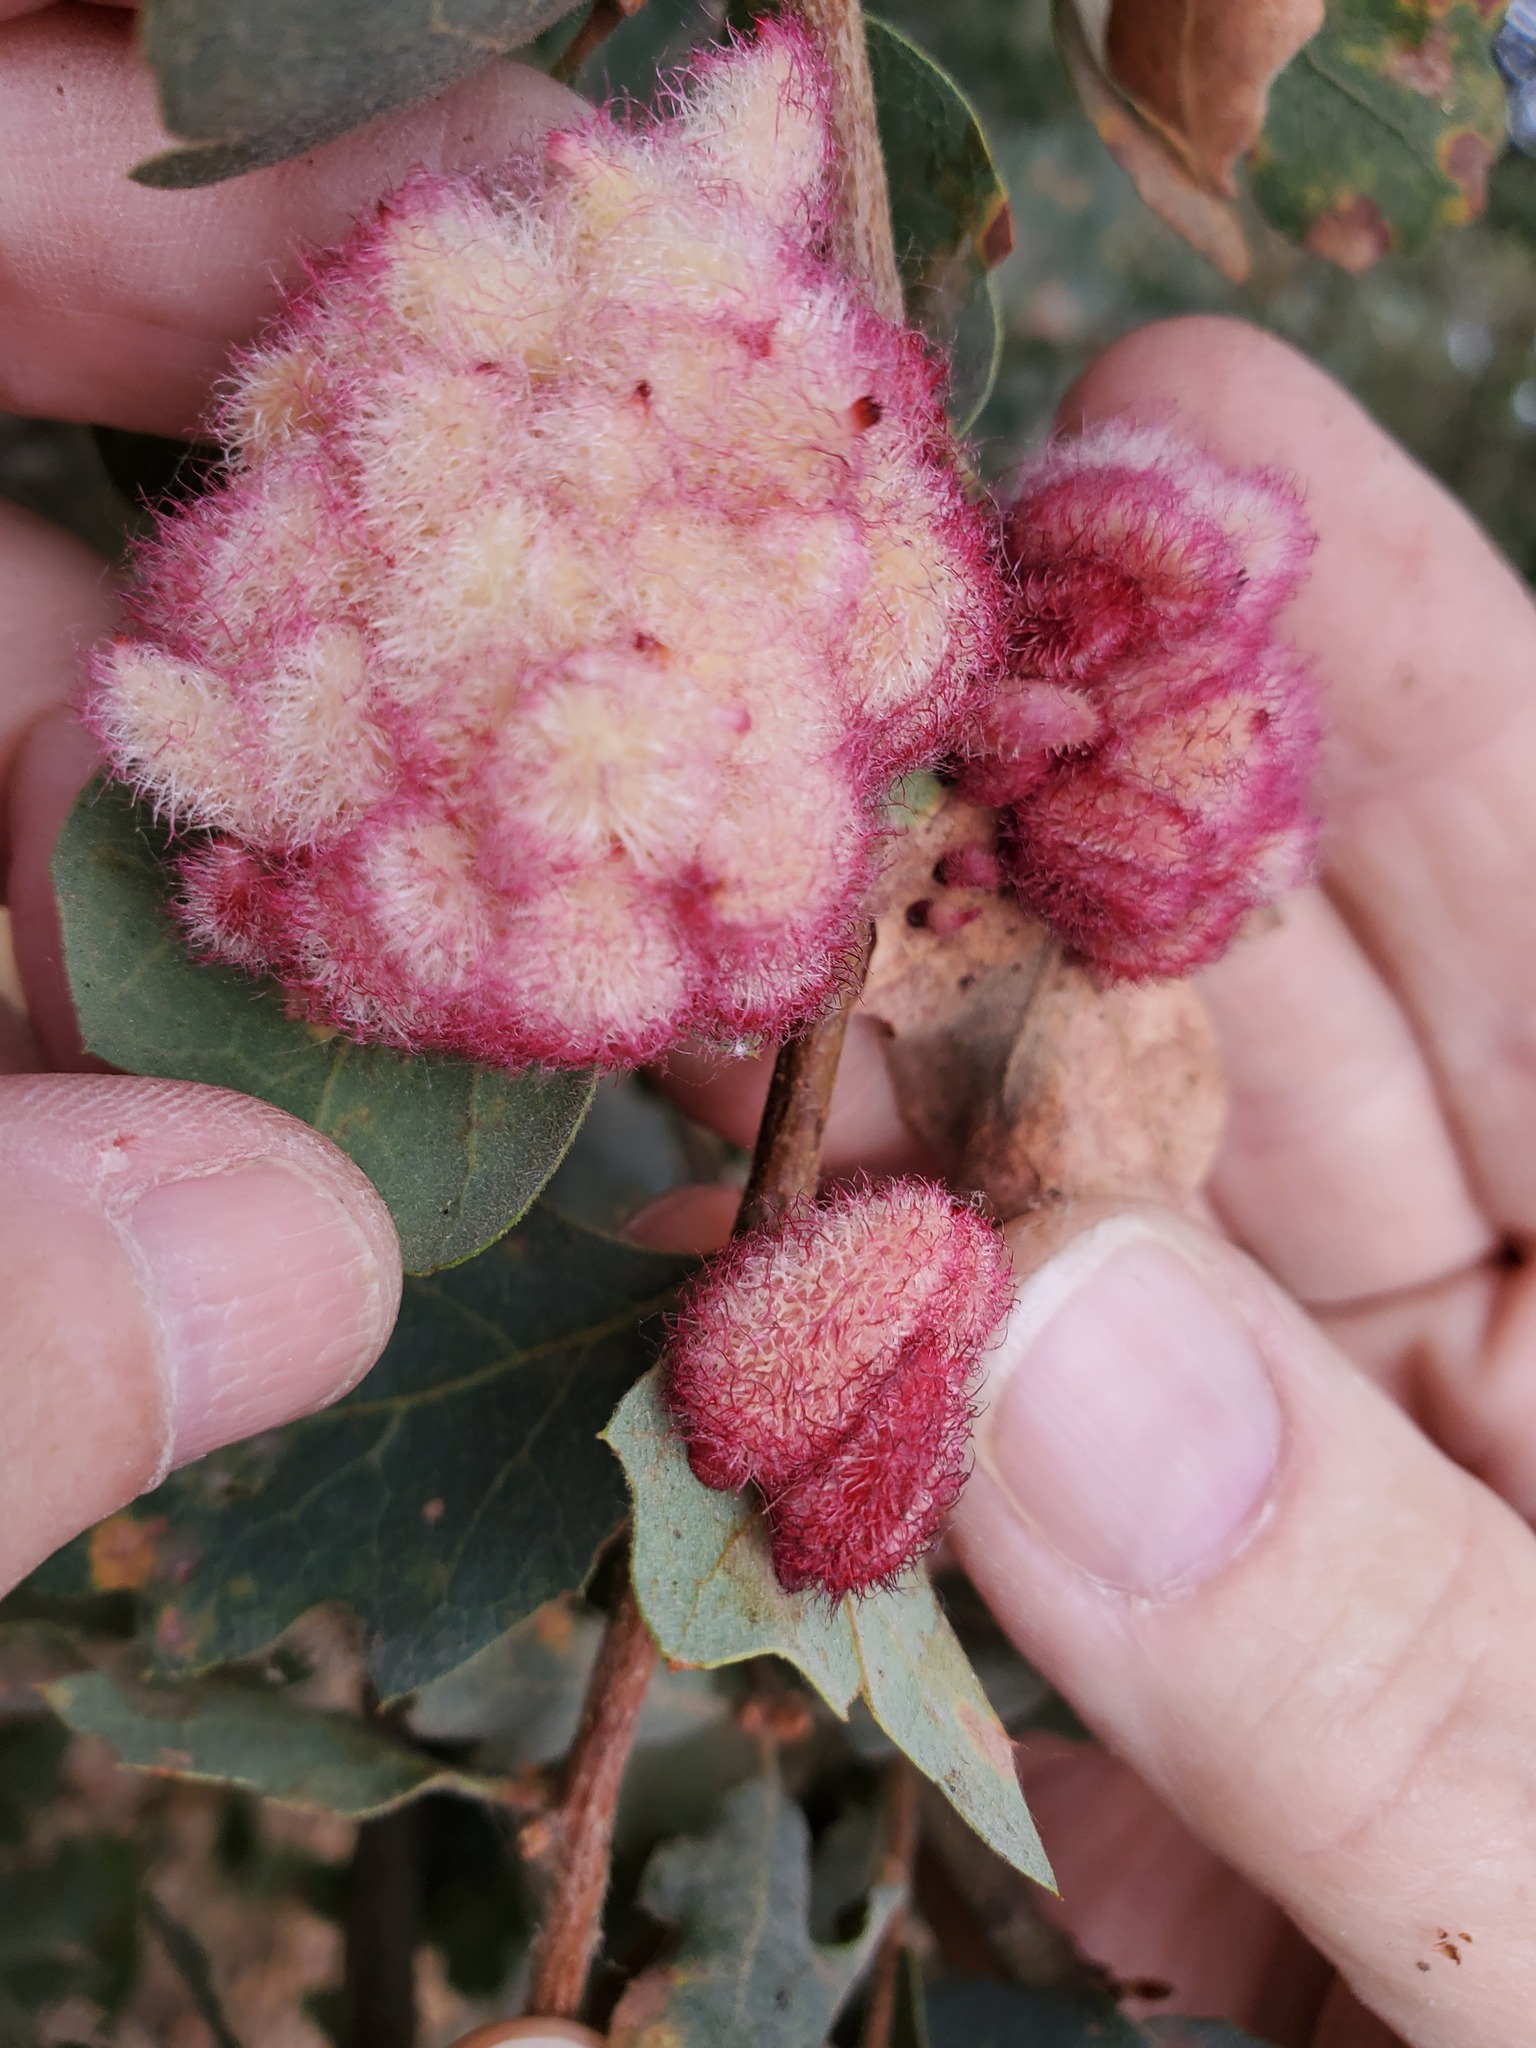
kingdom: Animalia
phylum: Arthropoda
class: Insecta
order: Hymenoptera
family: Cynipidae
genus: Andricus
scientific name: Andricus
